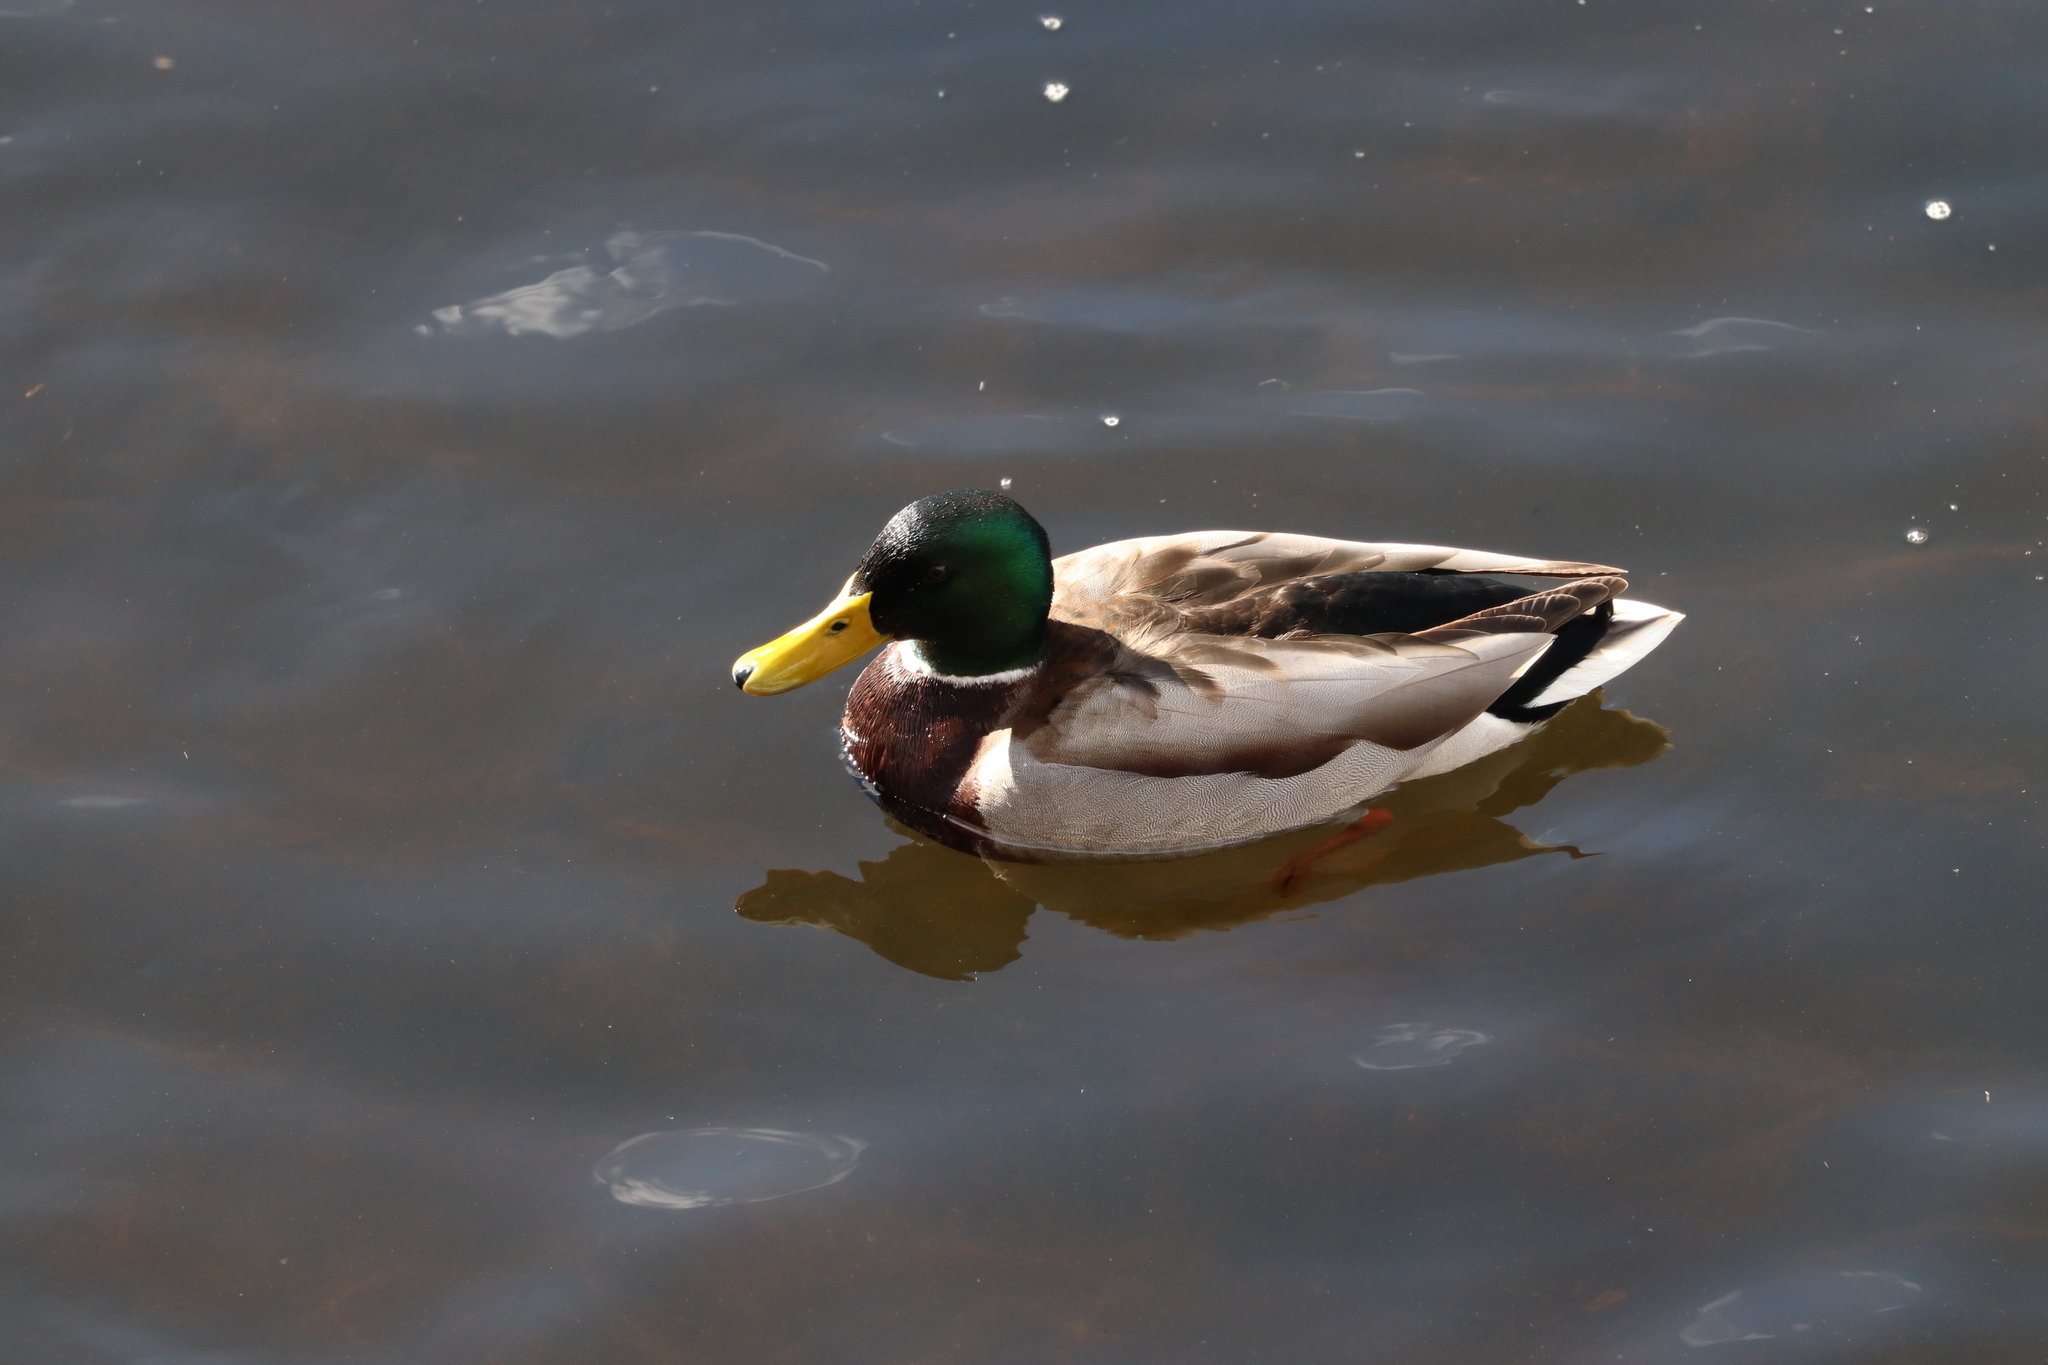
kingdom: Animalia
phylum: Chordata
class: Aves
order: Anseriformes
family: Anatidae
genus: Anas
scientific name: Anas platyrhynchos
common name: Mallard
